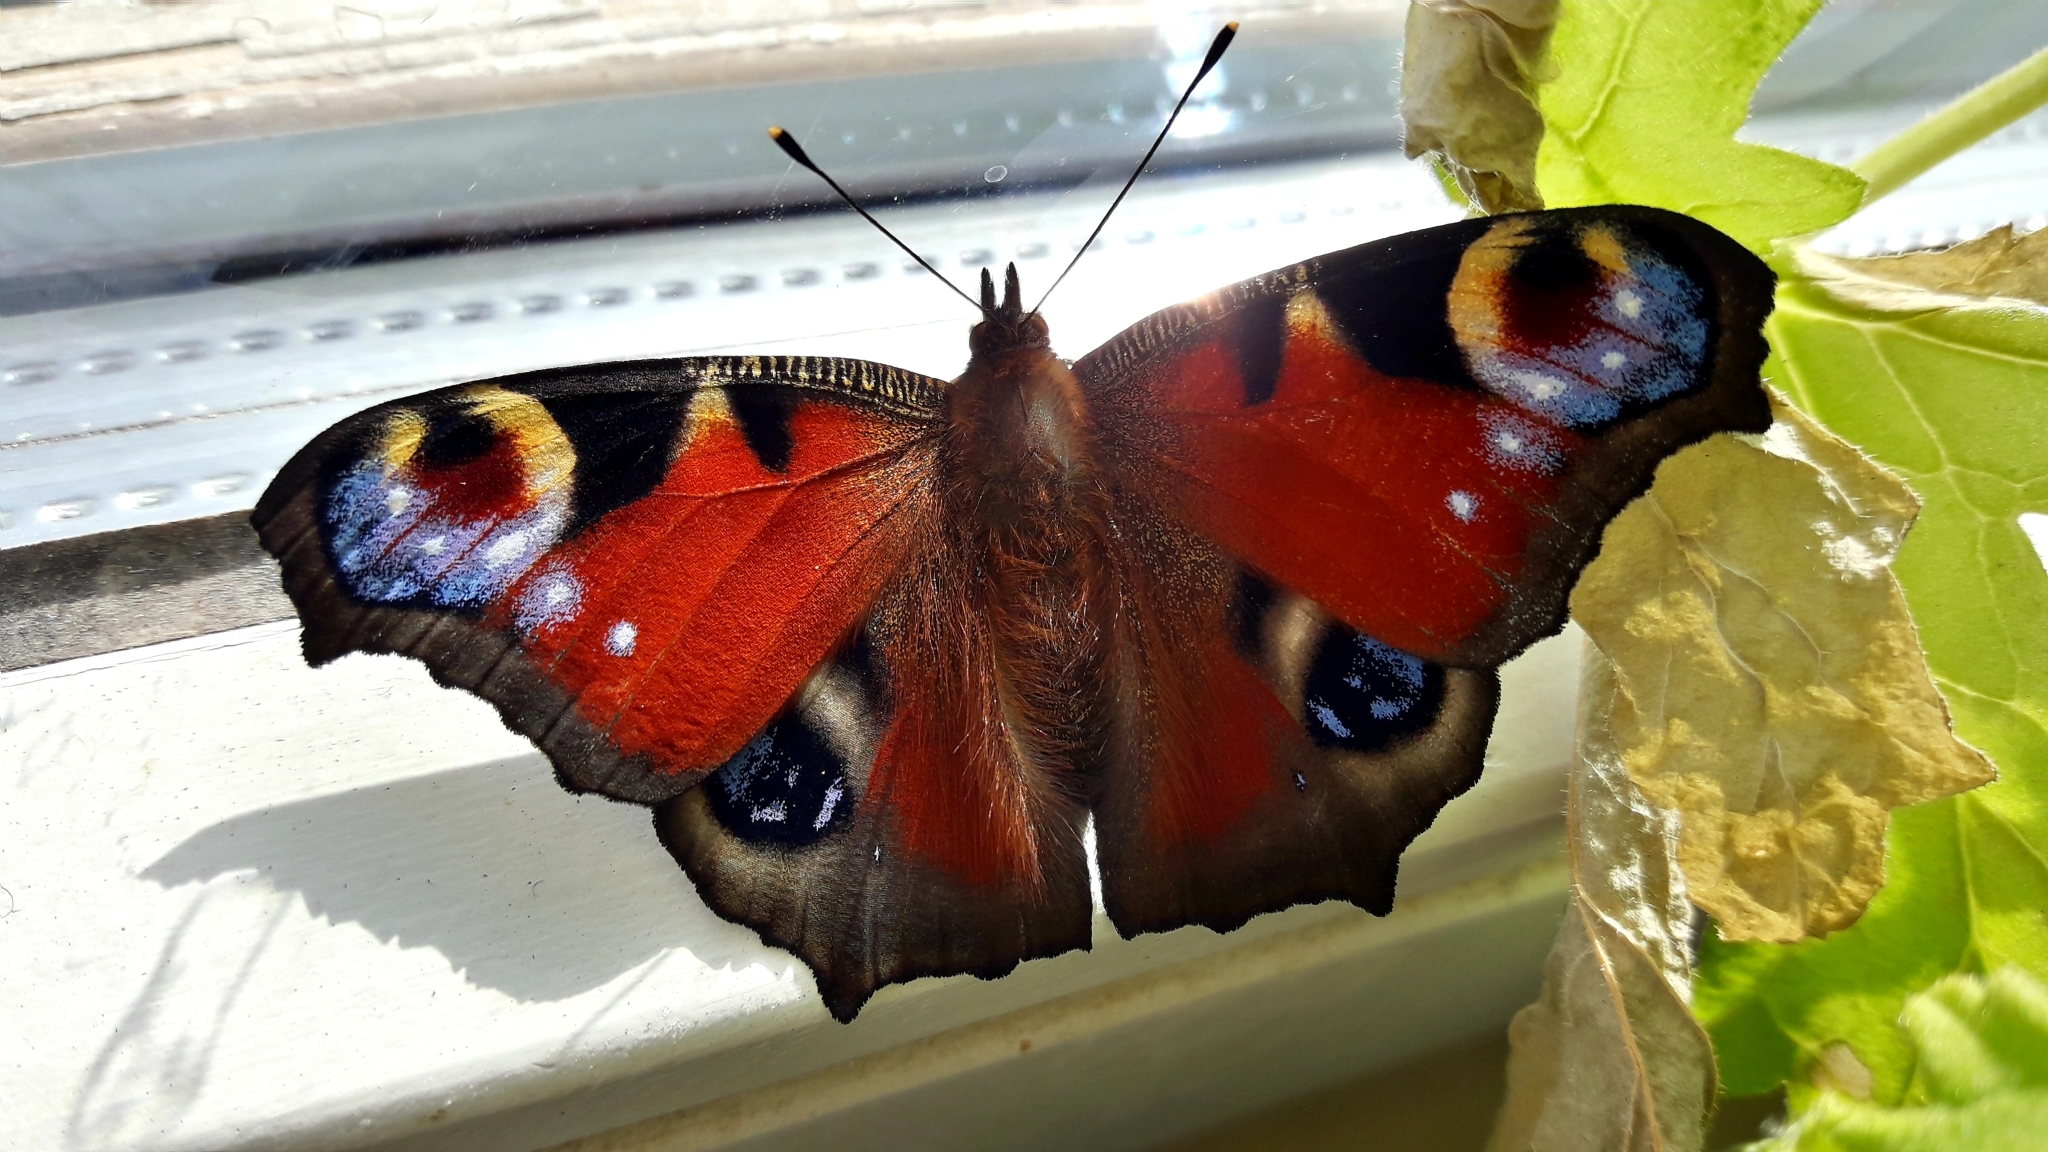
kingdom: Animalia
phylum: Arthropoda
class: Insecta
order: Lepidoptera
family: Nymphalidae
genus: Aglais
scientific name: Aglais io
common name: Peacock
